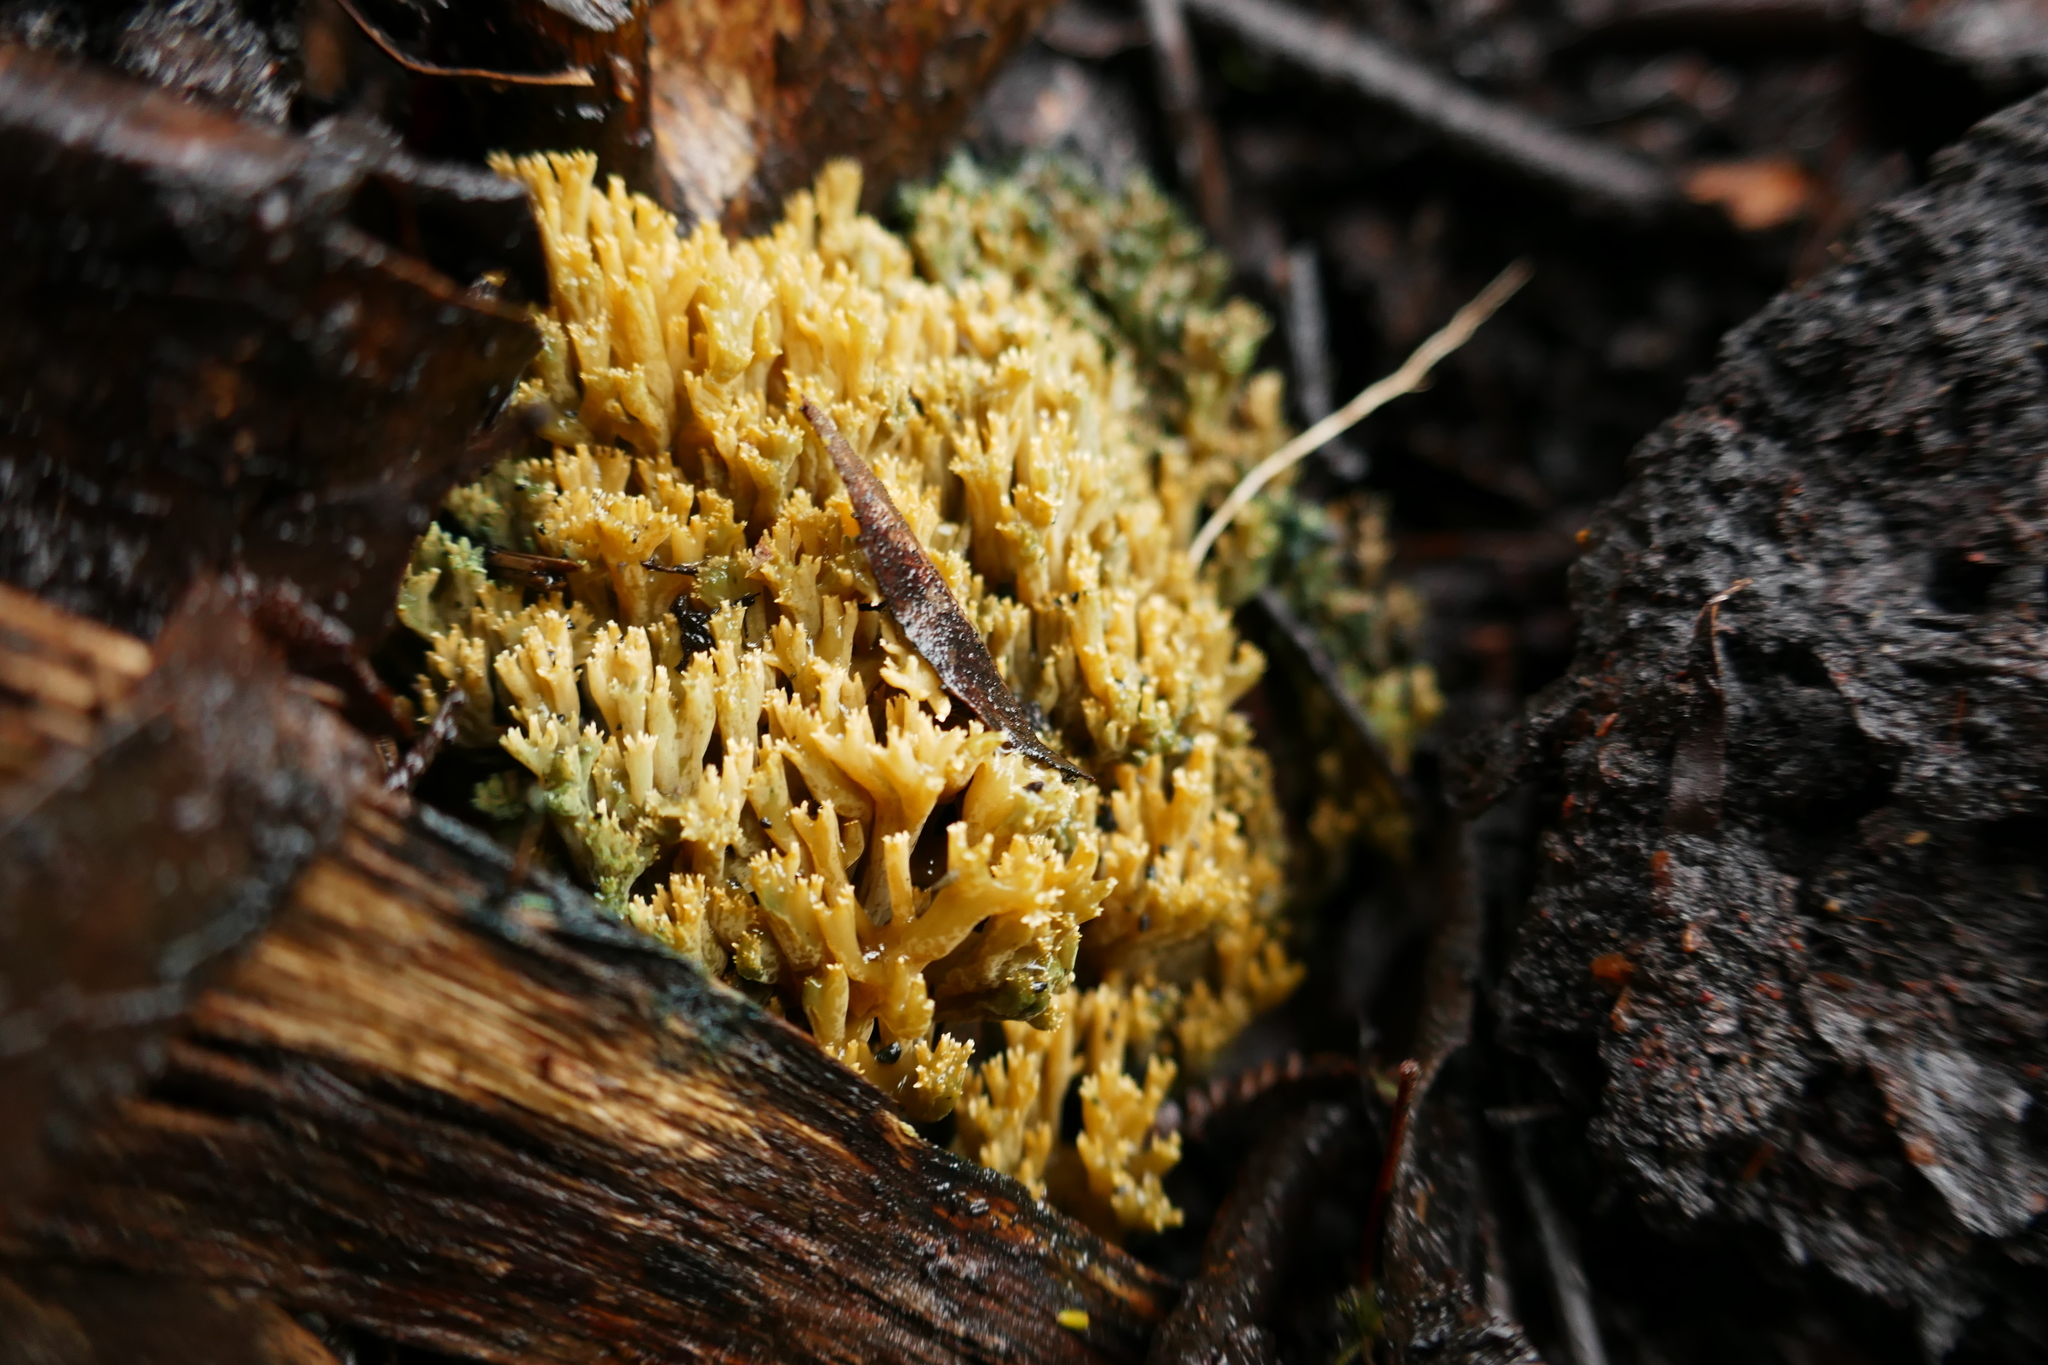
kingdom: Fungi
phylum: Basidiomycota
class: Agaricomycetes
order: Gomphales
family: Gomphaceae
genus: Phaeoclavulina
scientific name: Phaeoclavulina
